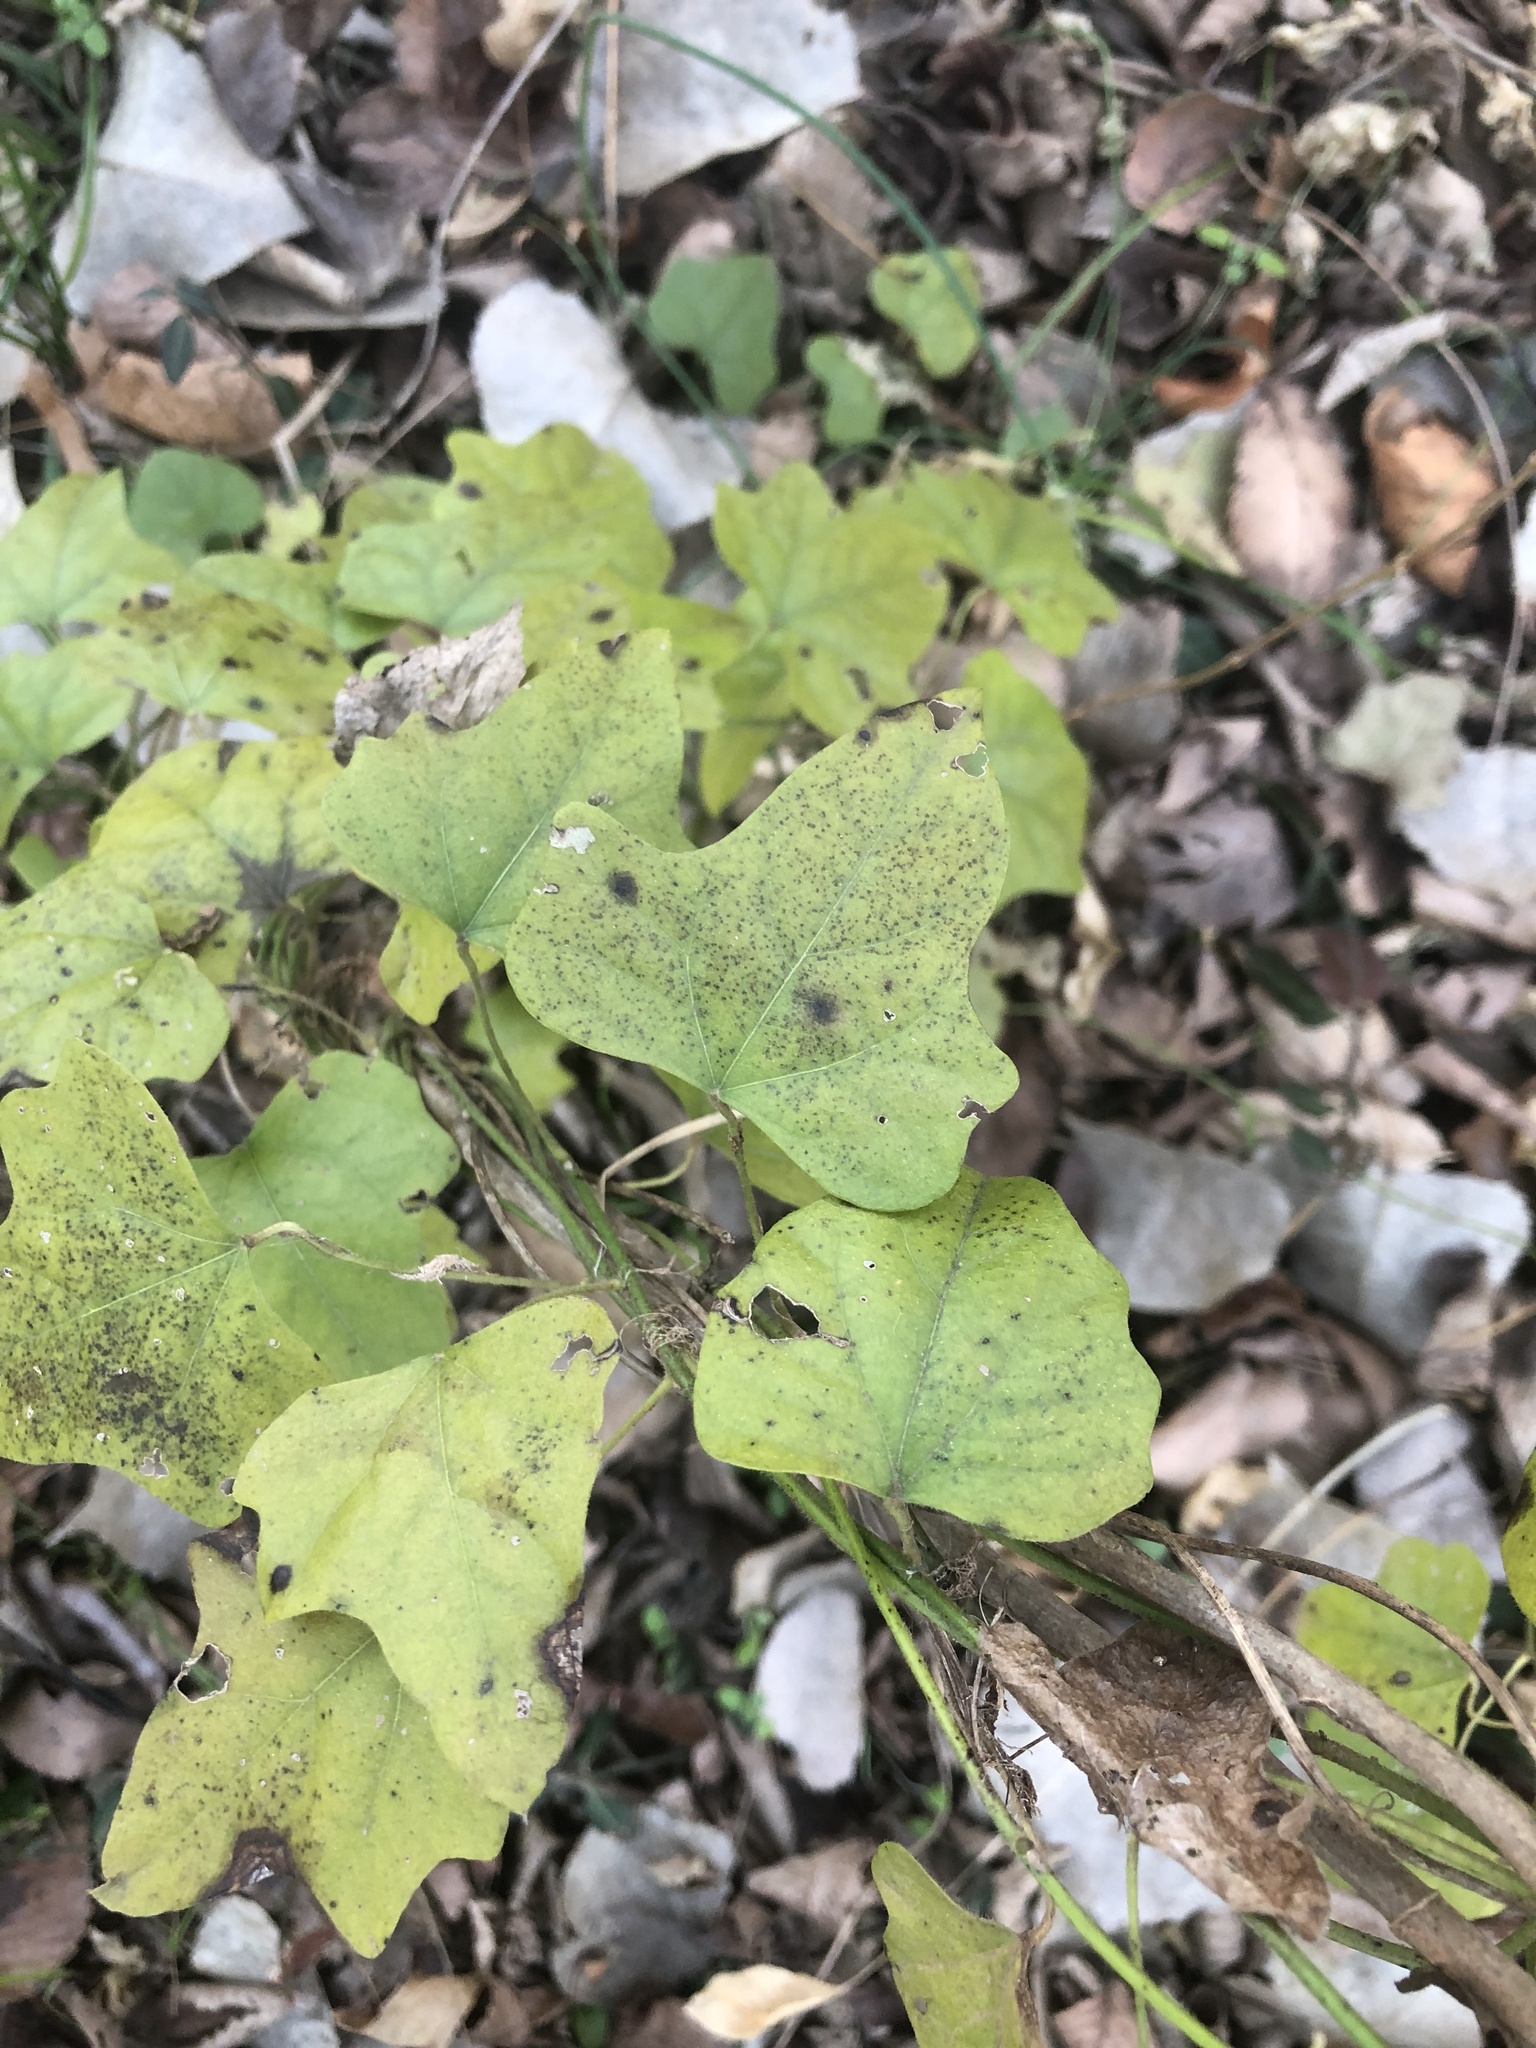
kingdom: Plantae
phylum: Tracheophyta
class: Magnoliopsida
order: Ranunculales
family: Menispermaceae
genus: Cocculus
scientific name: Cocculus carolinus
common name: Carolina moonseed
